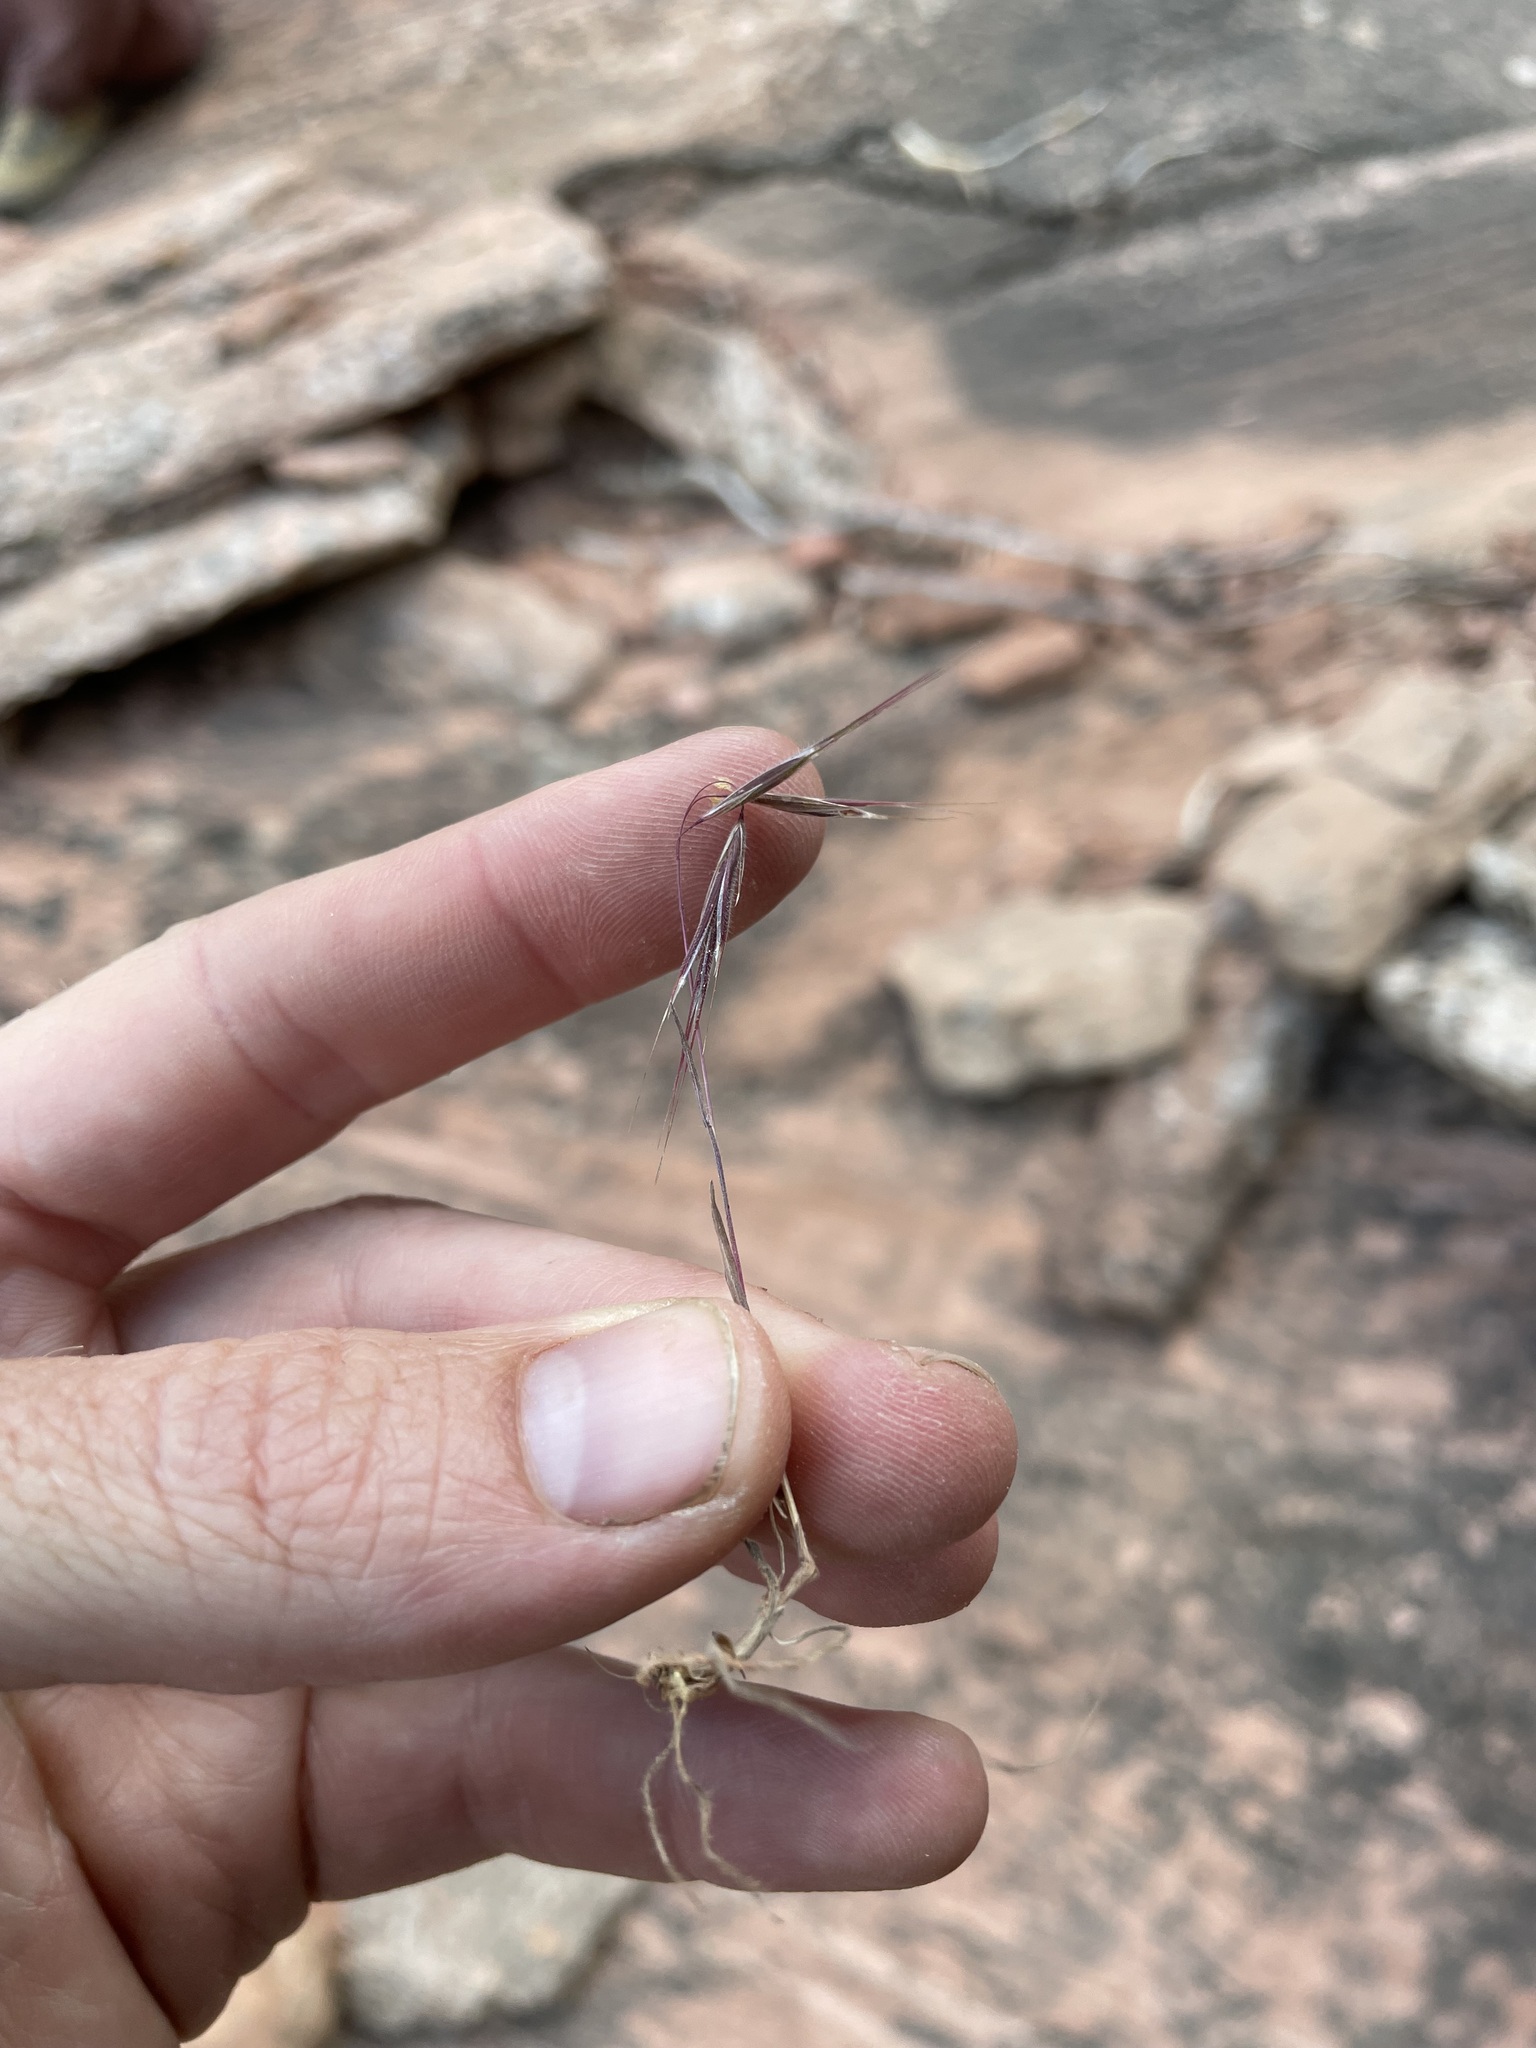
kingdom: Plantae
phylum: Tracheophyta
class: Liliopsida
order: Poales
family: Poaceae
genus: Bromus
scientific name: Bromus tectorum
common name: Cheatgrass
